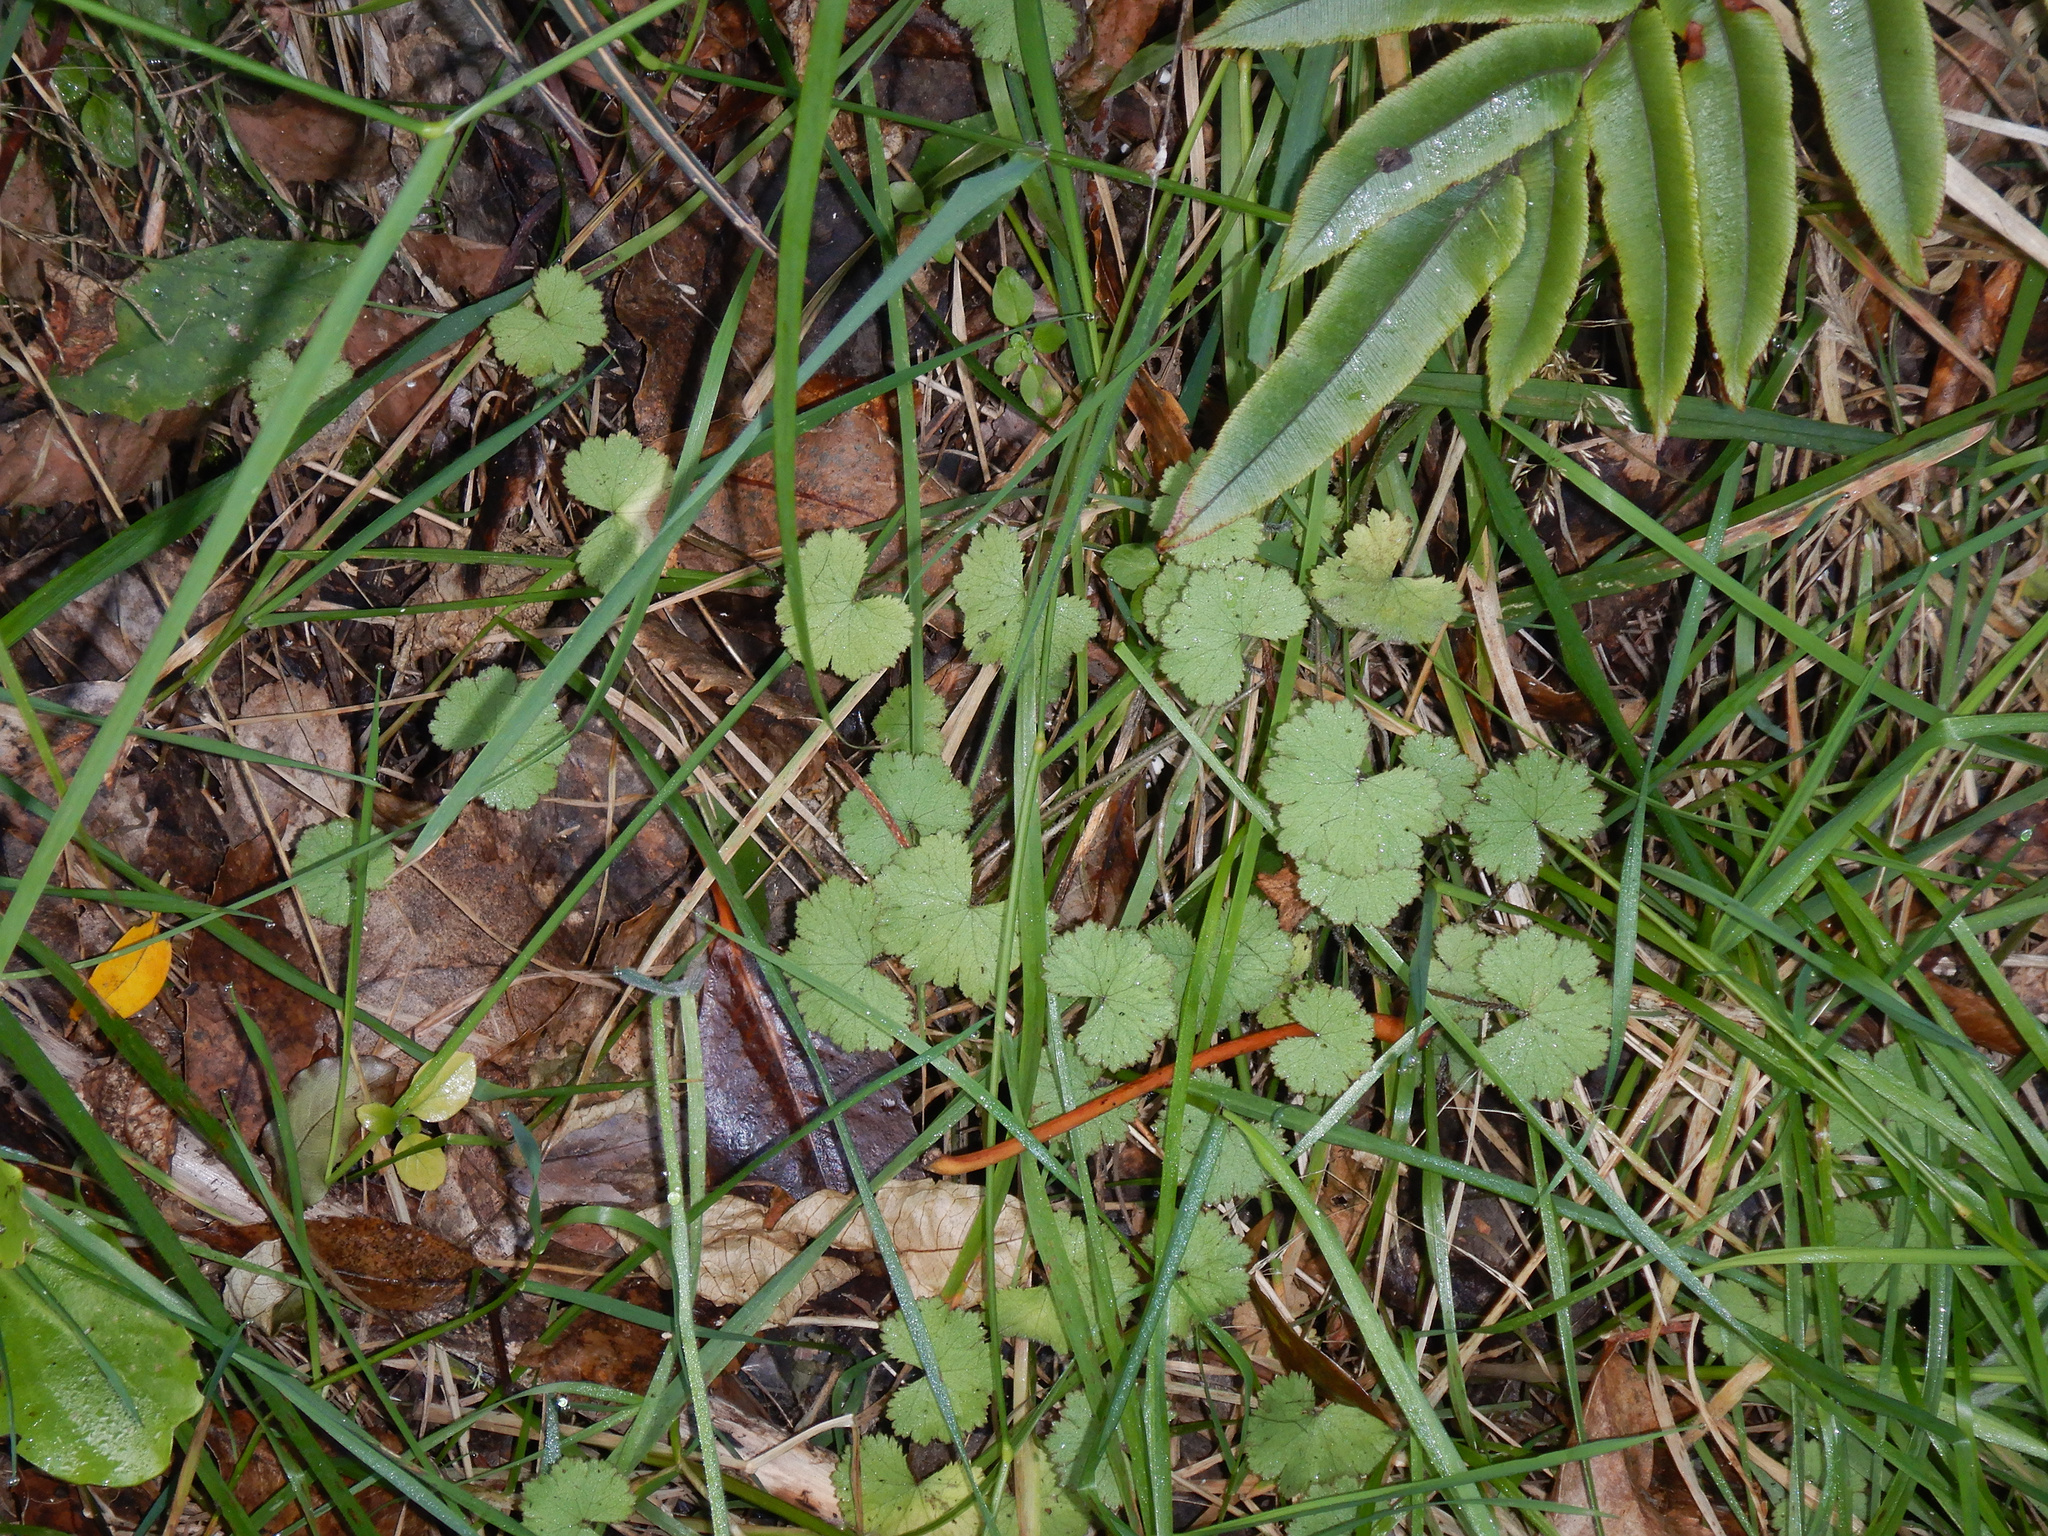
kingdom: Plantae
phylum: Tracheophyta
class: Magnoliopsida
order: Apiales
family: Araliaceae
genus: Hydrocotyle
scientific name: Hydrocotyle moschata
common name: Hairy pennywort
